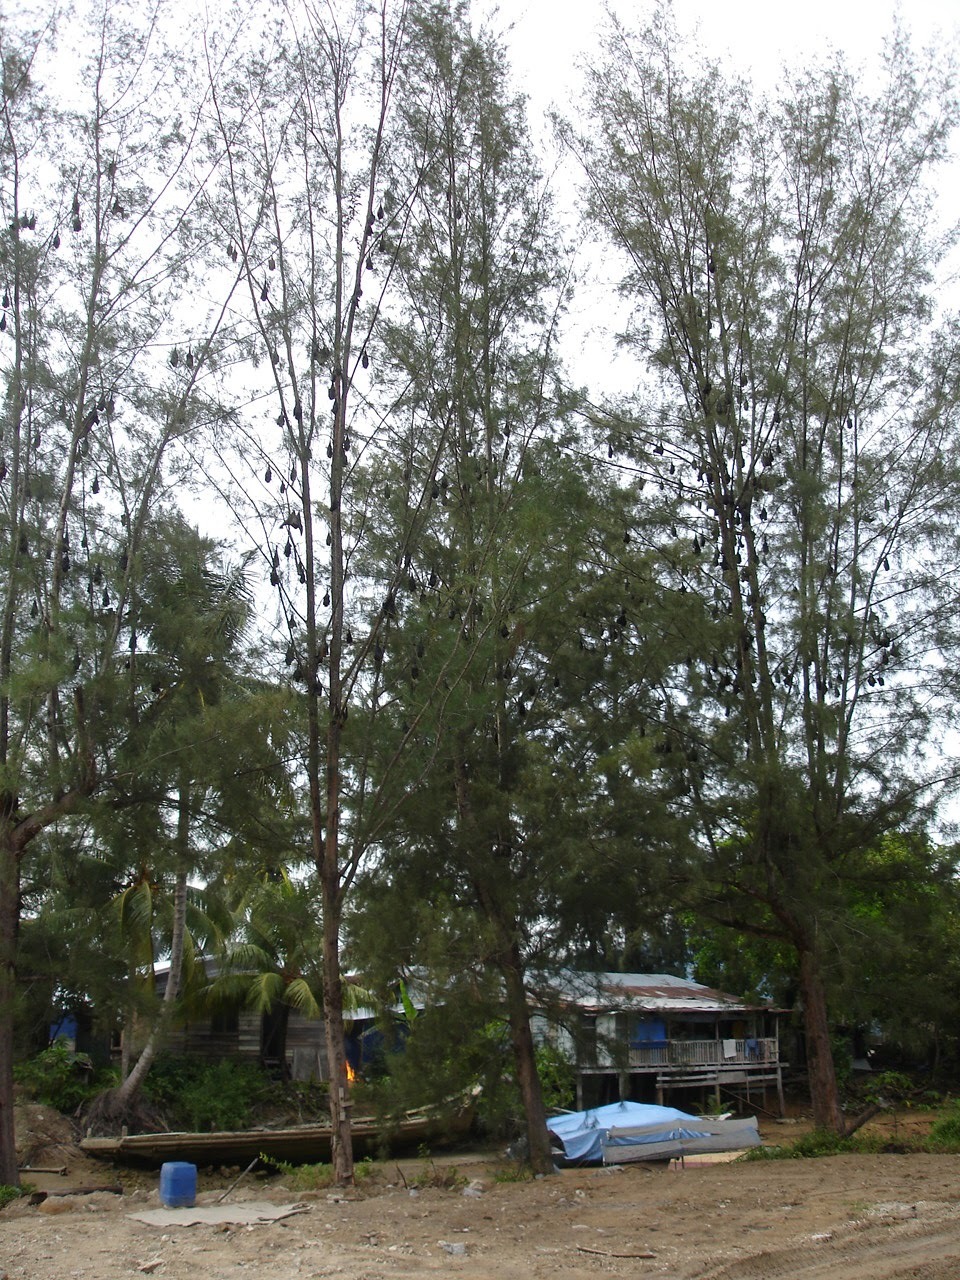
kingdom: Animalia
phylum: Chordata
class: Mammalia
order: Chiroptera
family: Pteropodidae
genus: Pteropus
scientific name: Pteropus hypomelanus
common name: Variable flying fox
